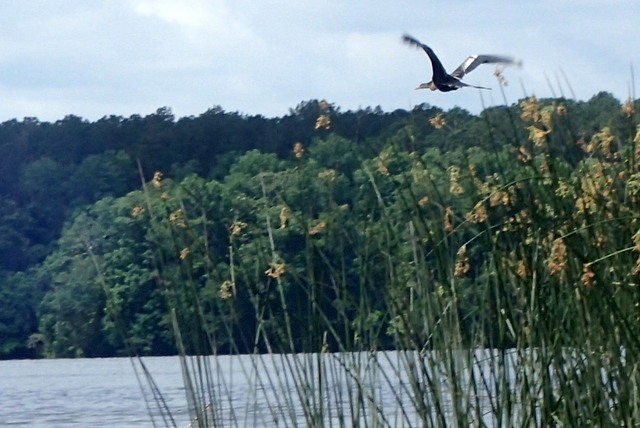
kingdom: Animalia
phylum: Chordata
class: Aves
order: Pelecaniformes
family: Ardeidae
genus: Ardea
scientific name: Ardea herodias
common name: Great blue heron
